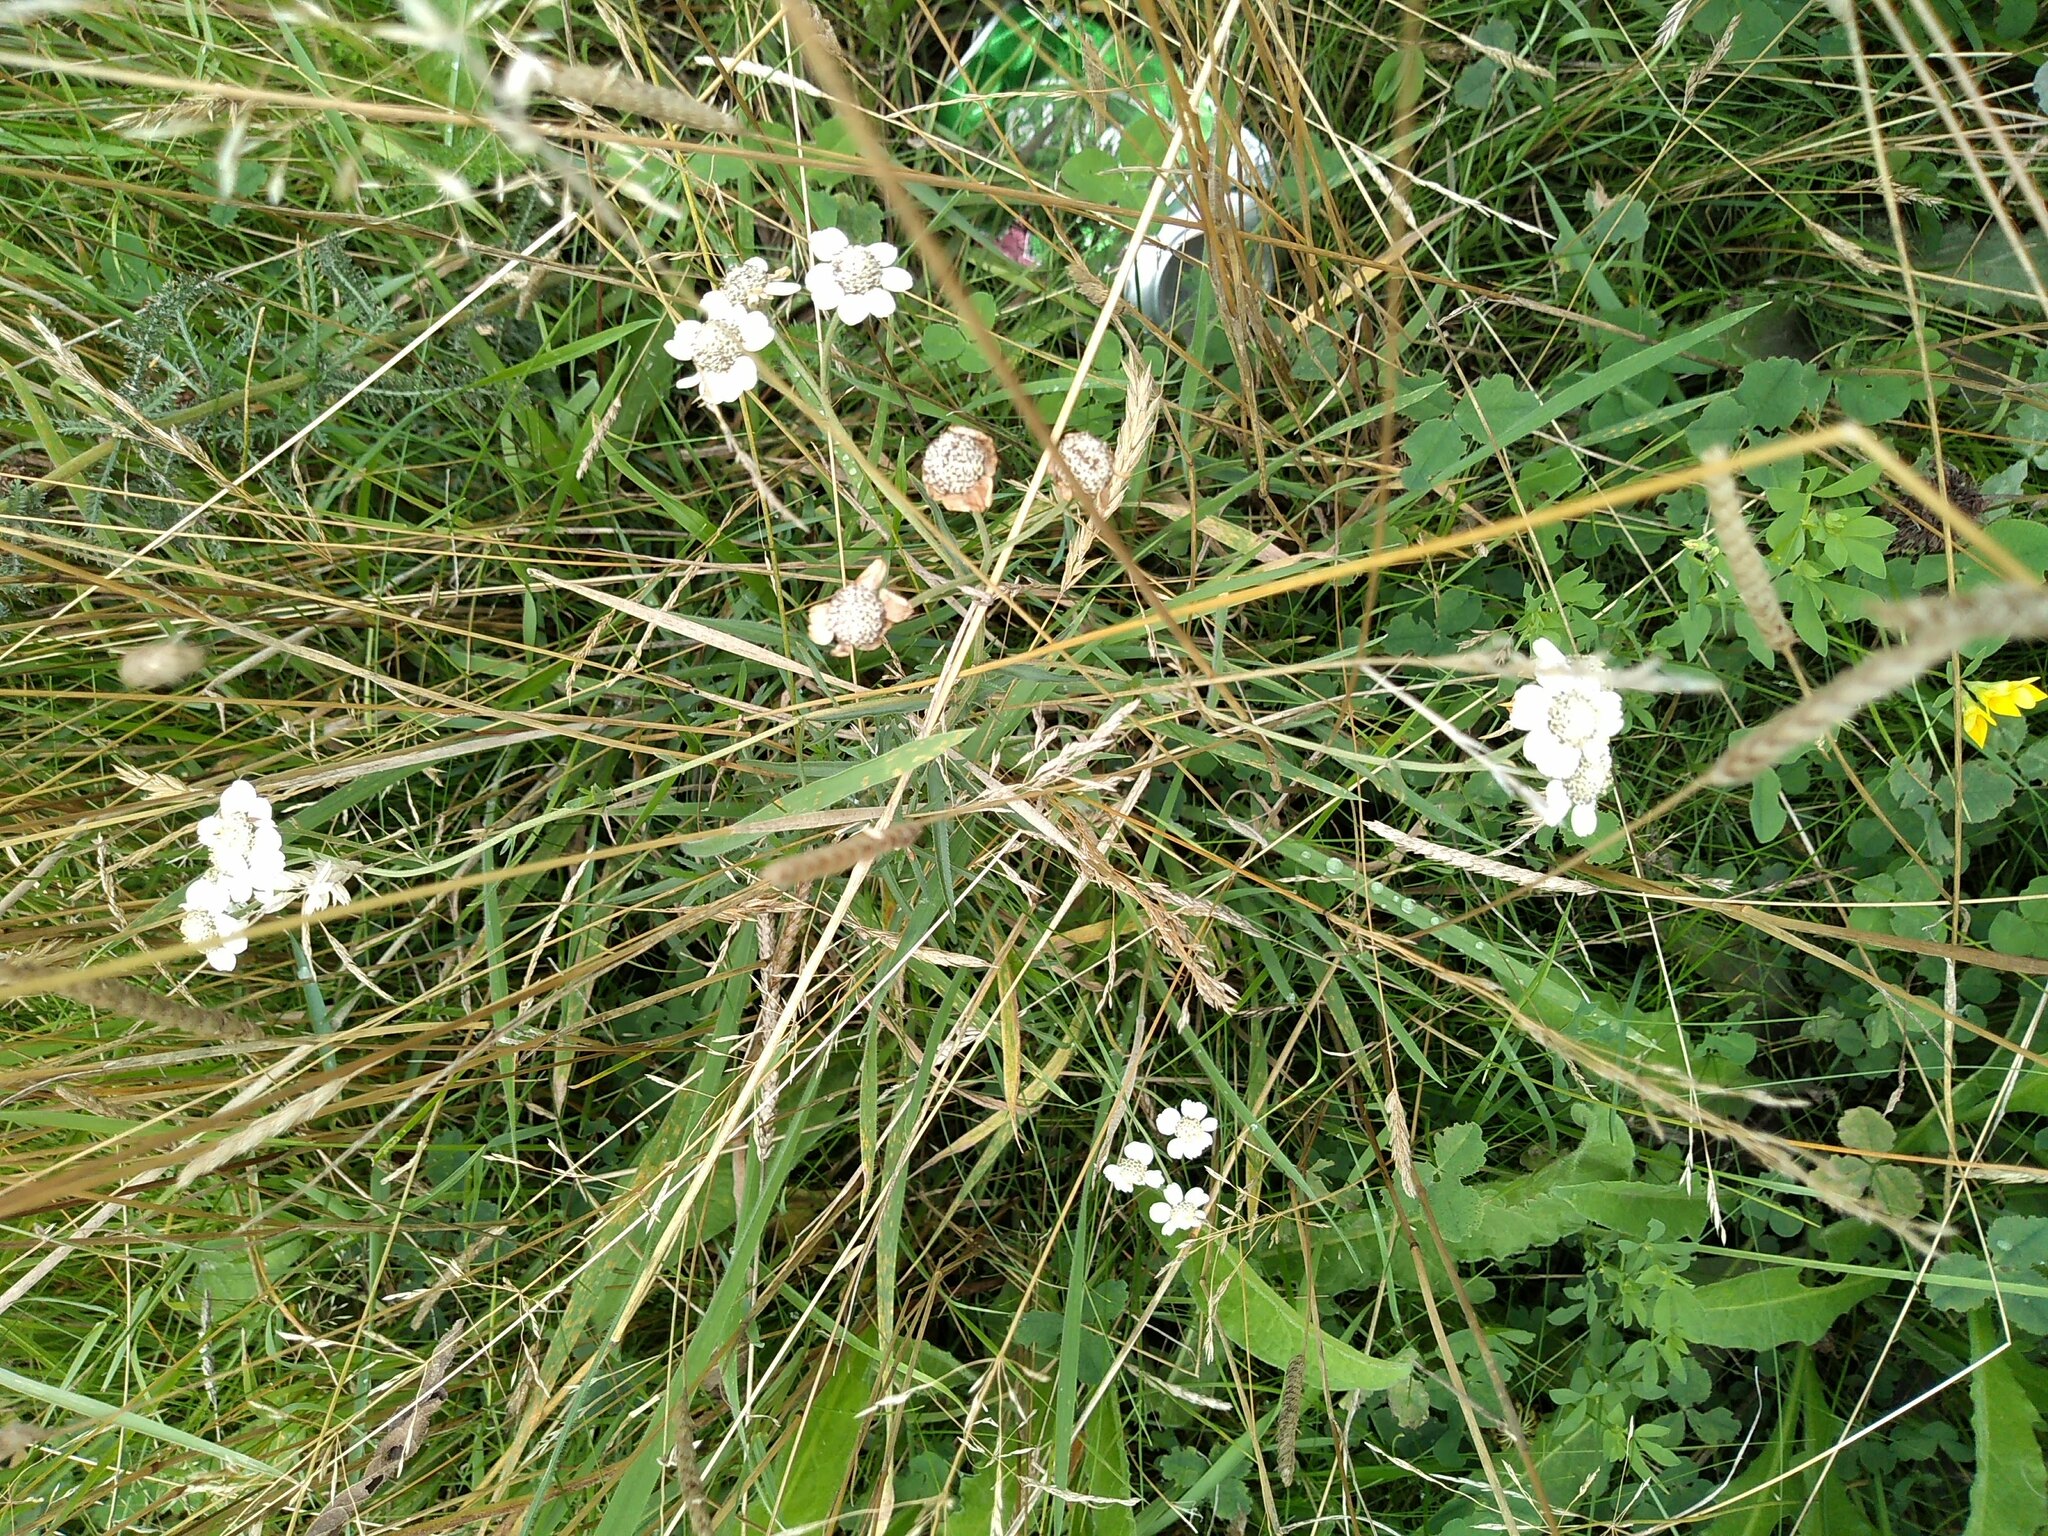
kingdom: Plantae
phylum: Tracheophyta
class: Magnoliopsida
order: Asterales
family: Asteraceae
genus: Achillea
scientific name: Achillea ptarmica
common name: Sneezeweed
